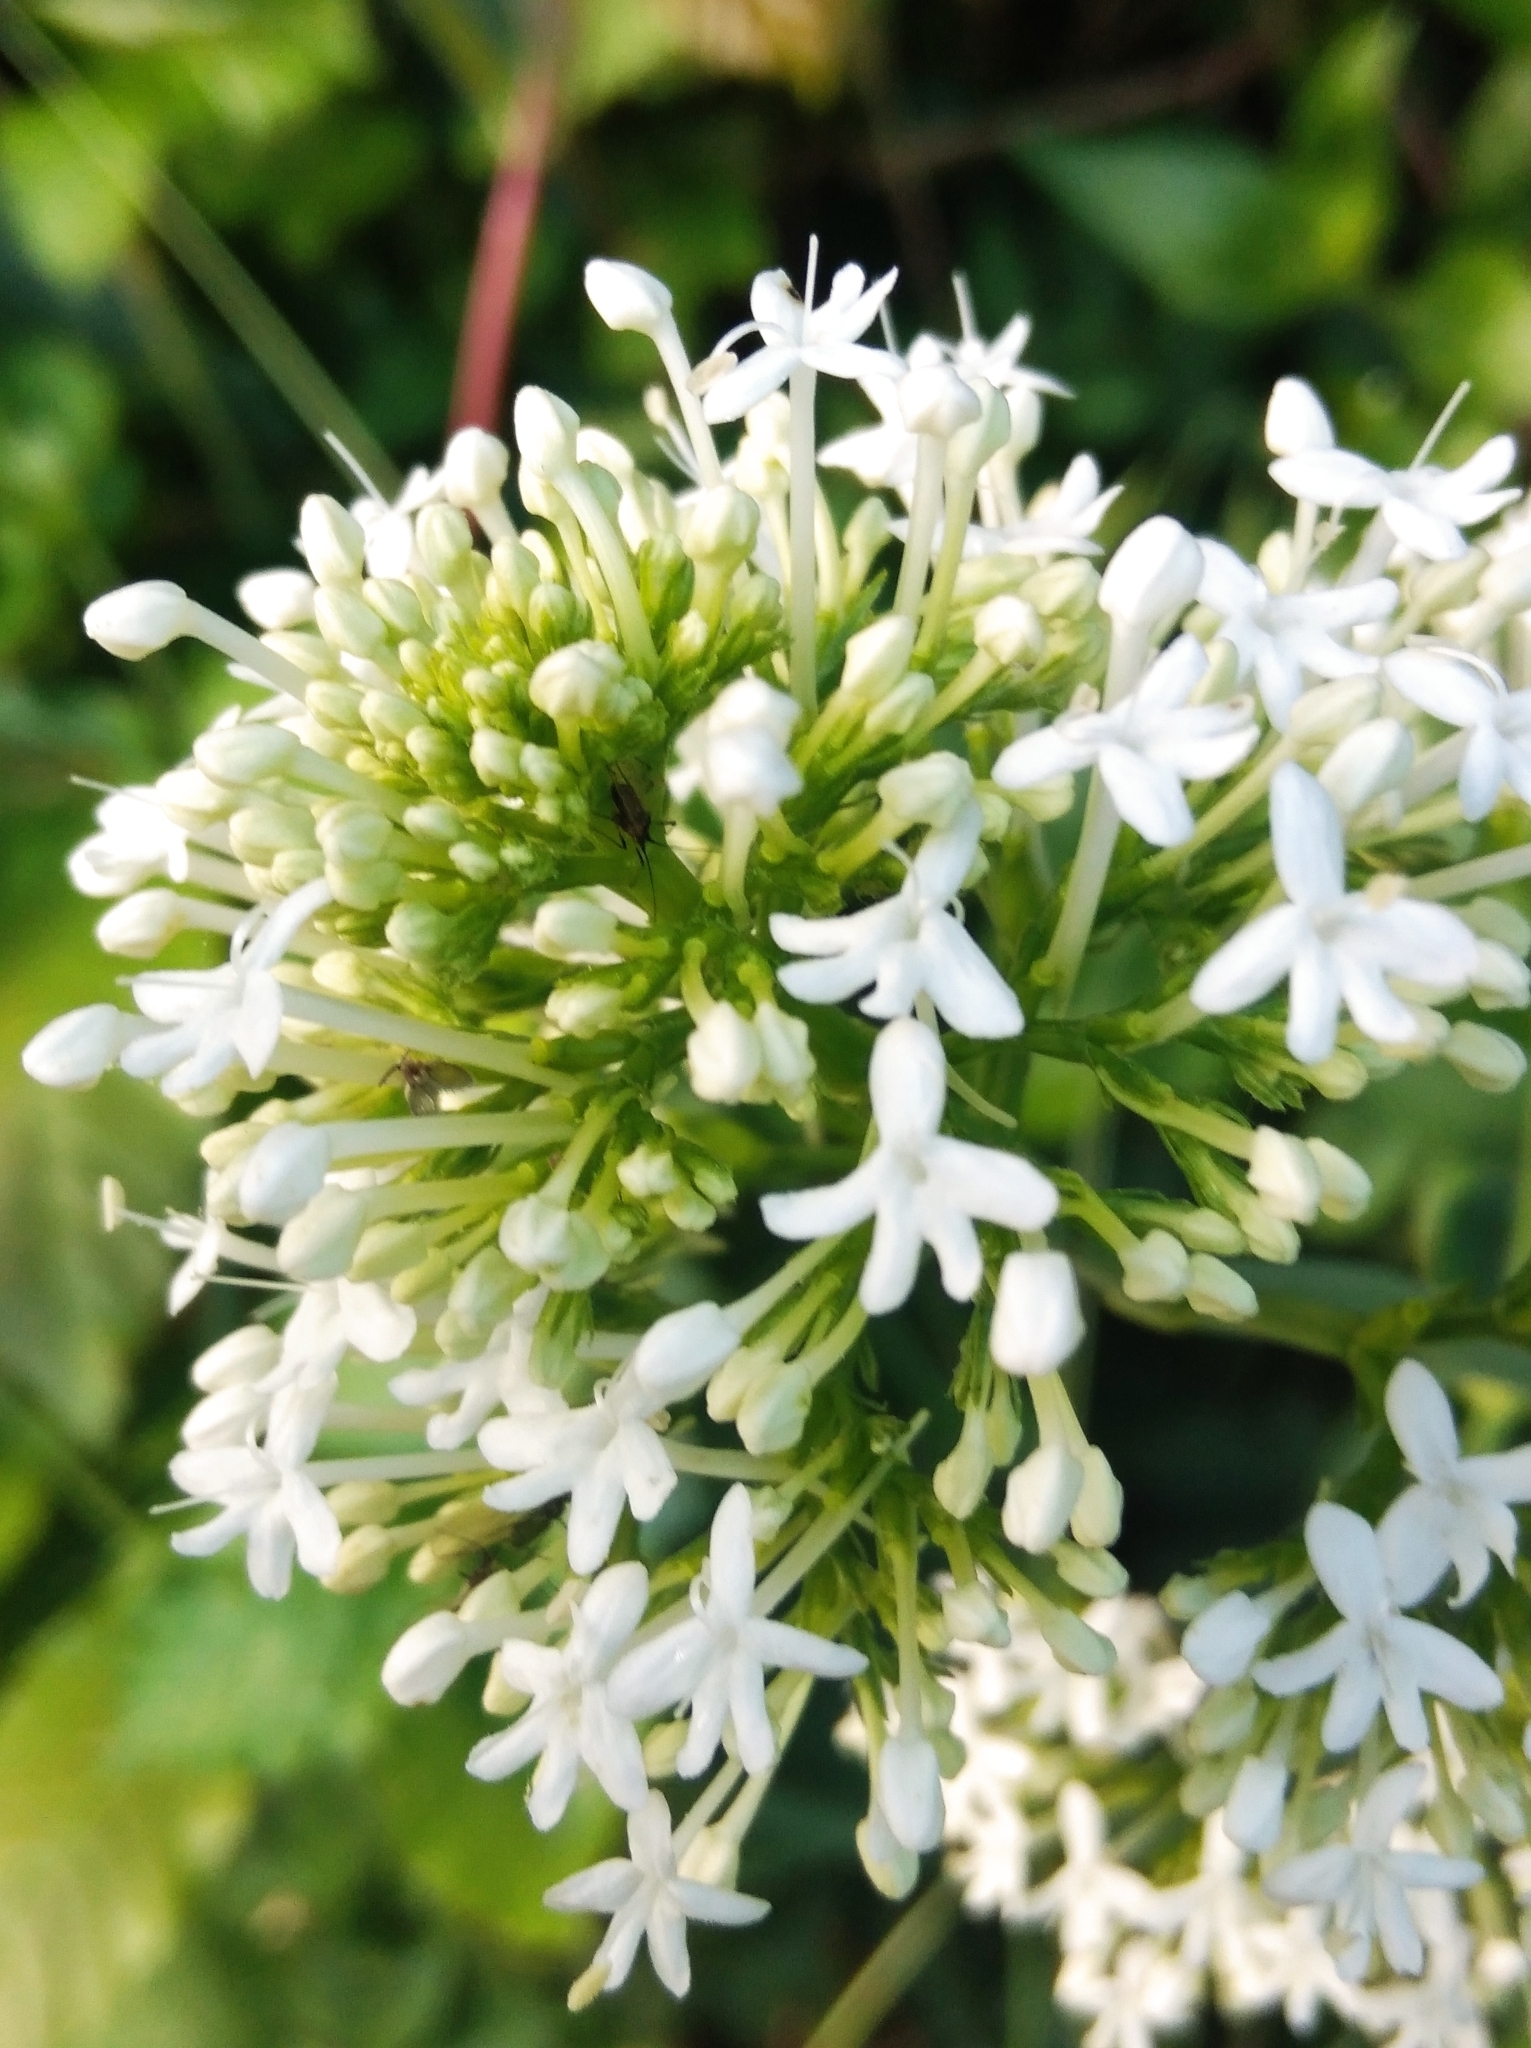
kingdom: Plantae
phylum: Tracheophyta
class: Magnoliopsida
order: Dipsacales
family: Caprifoliaceae
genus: Centranthus
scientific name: Centranthus ruber
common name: Red valerian
